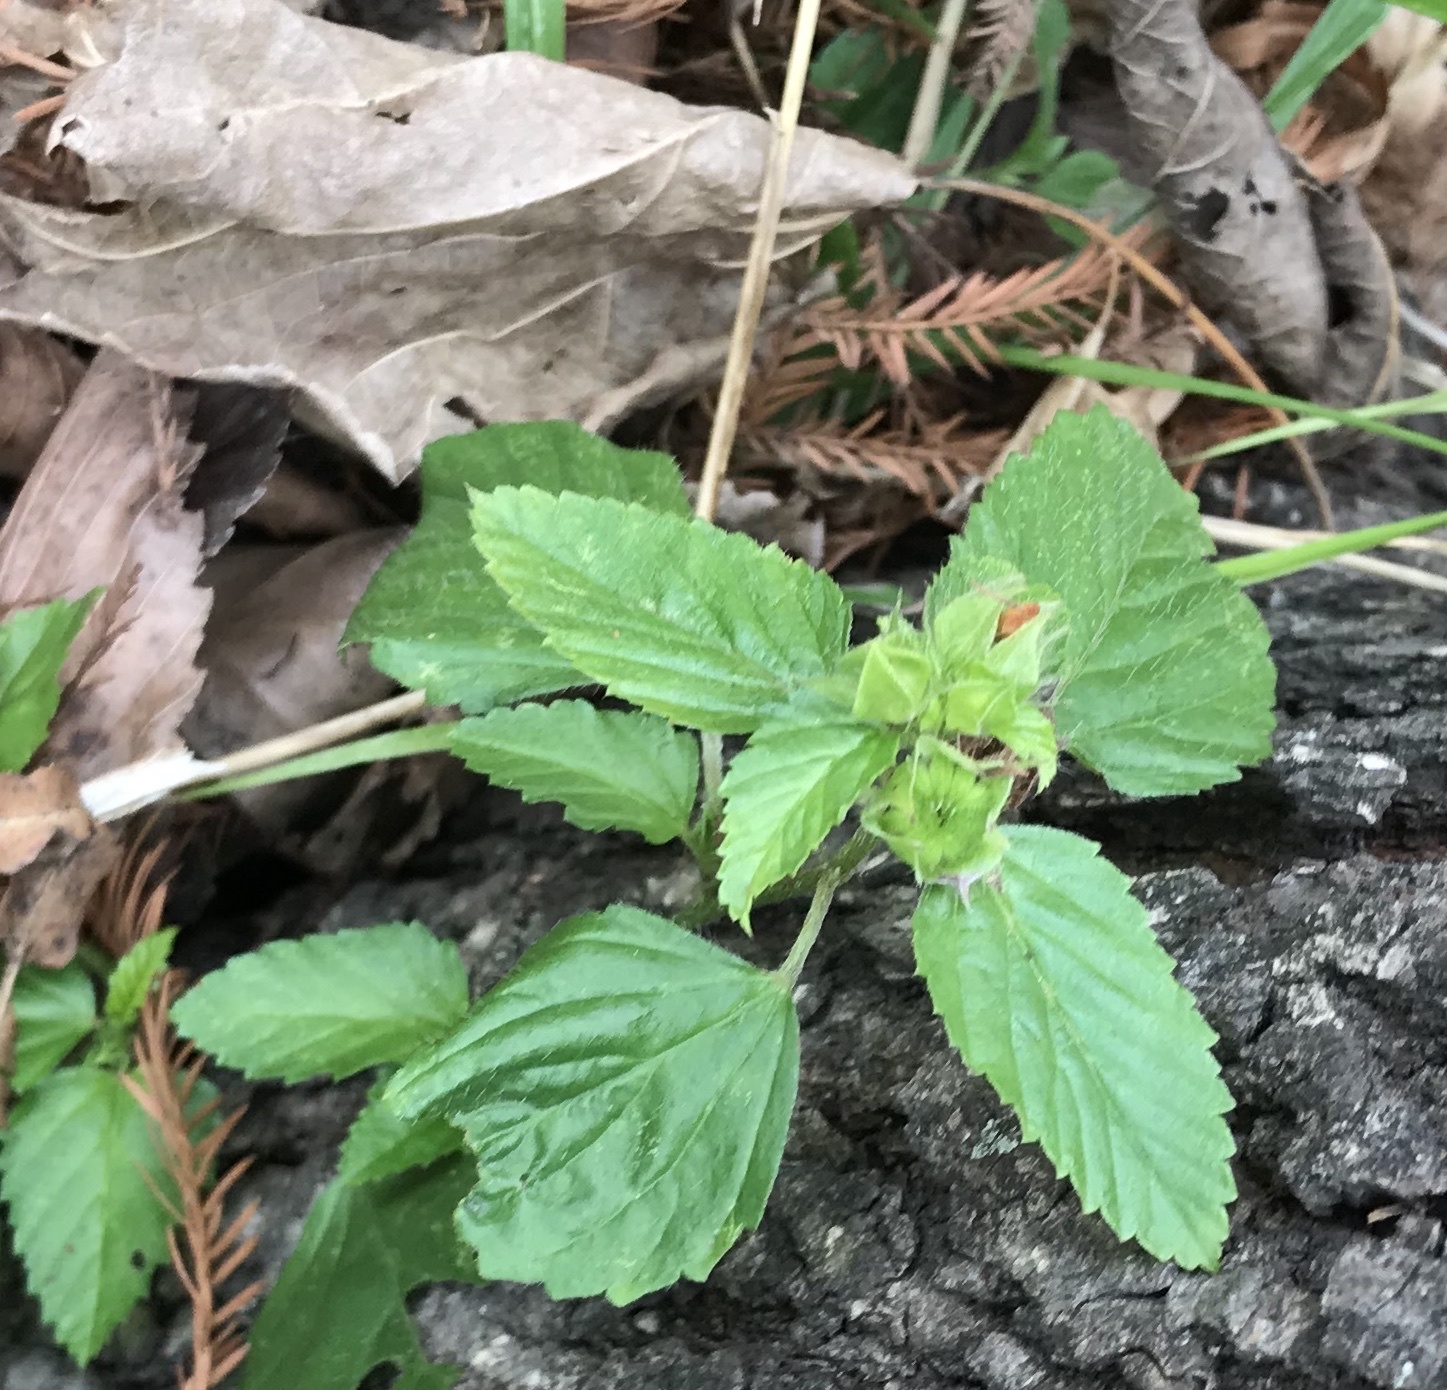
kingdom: Plantae
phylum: Tracheophyta
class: Magnoliopsida
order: Malvales
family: Malvaceae
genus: Malvastrum
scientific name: Malvastrum coromandelianum
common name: Threelobe false mallow
